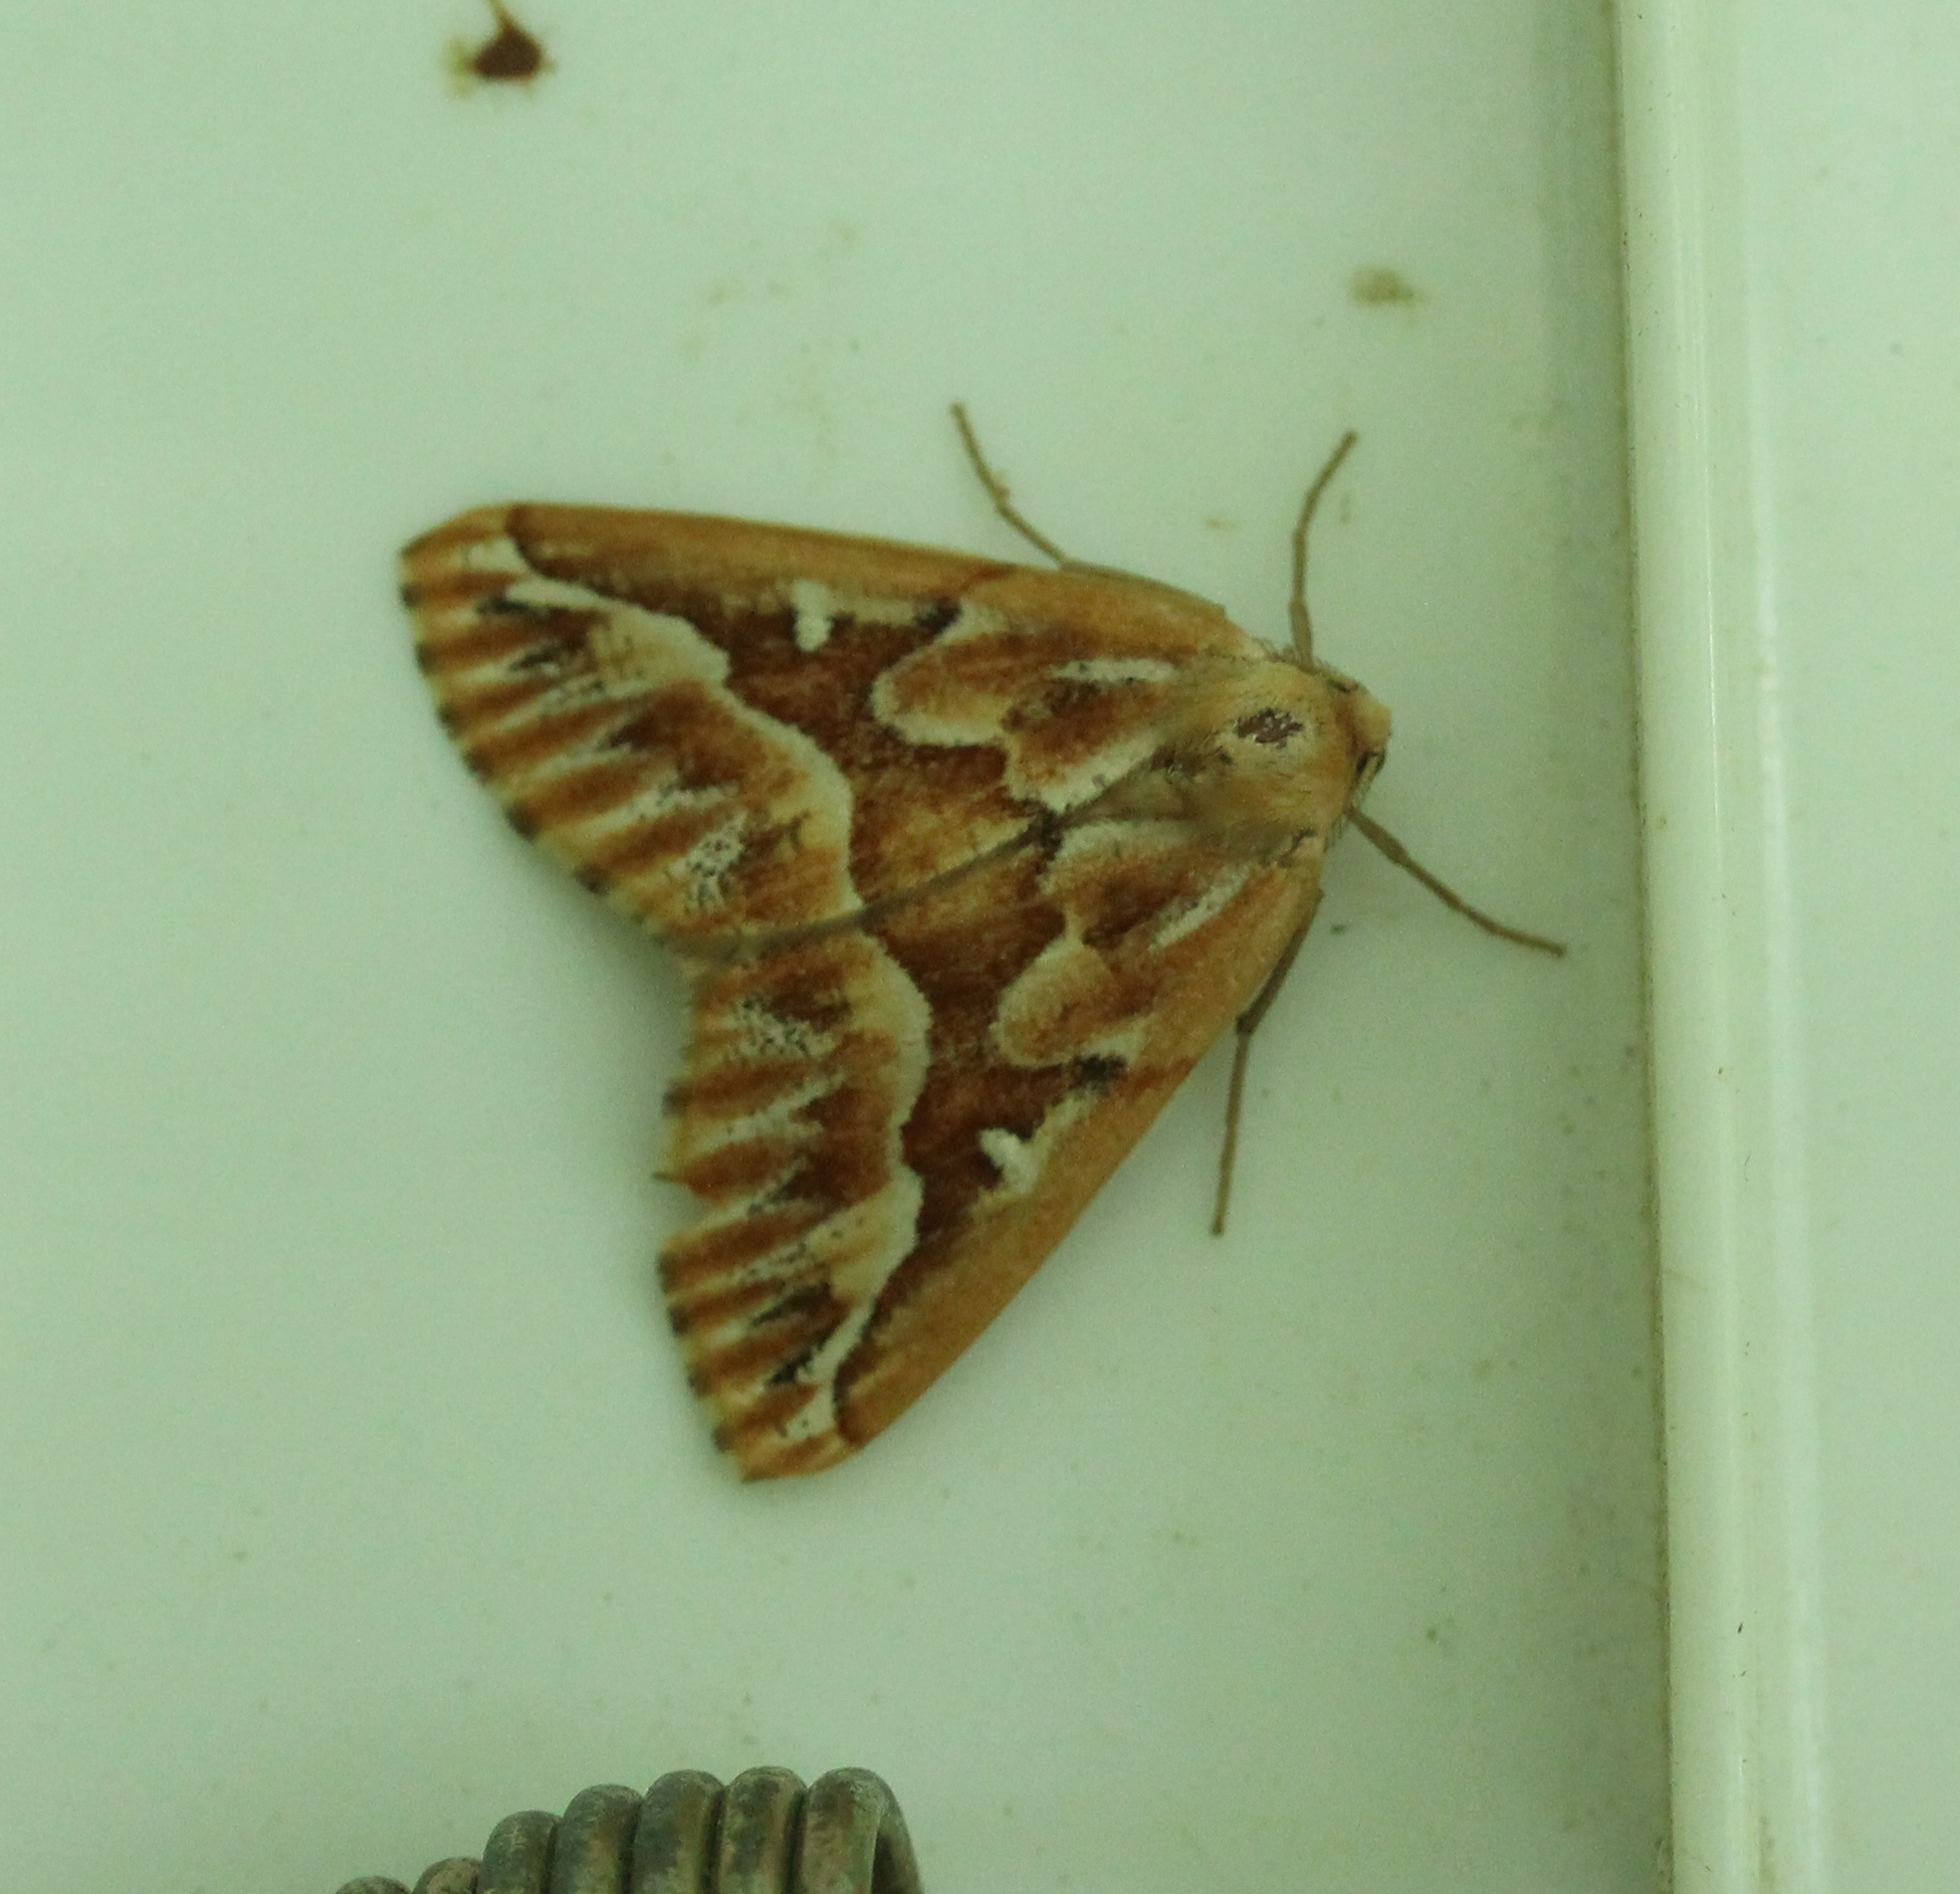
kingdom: Animalia
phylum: Arthropoda
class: Insecta
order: Lepidoptera
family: Geometridae
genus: Caripeta
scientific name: Caripeta piniata
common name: Northern pine looper moth
